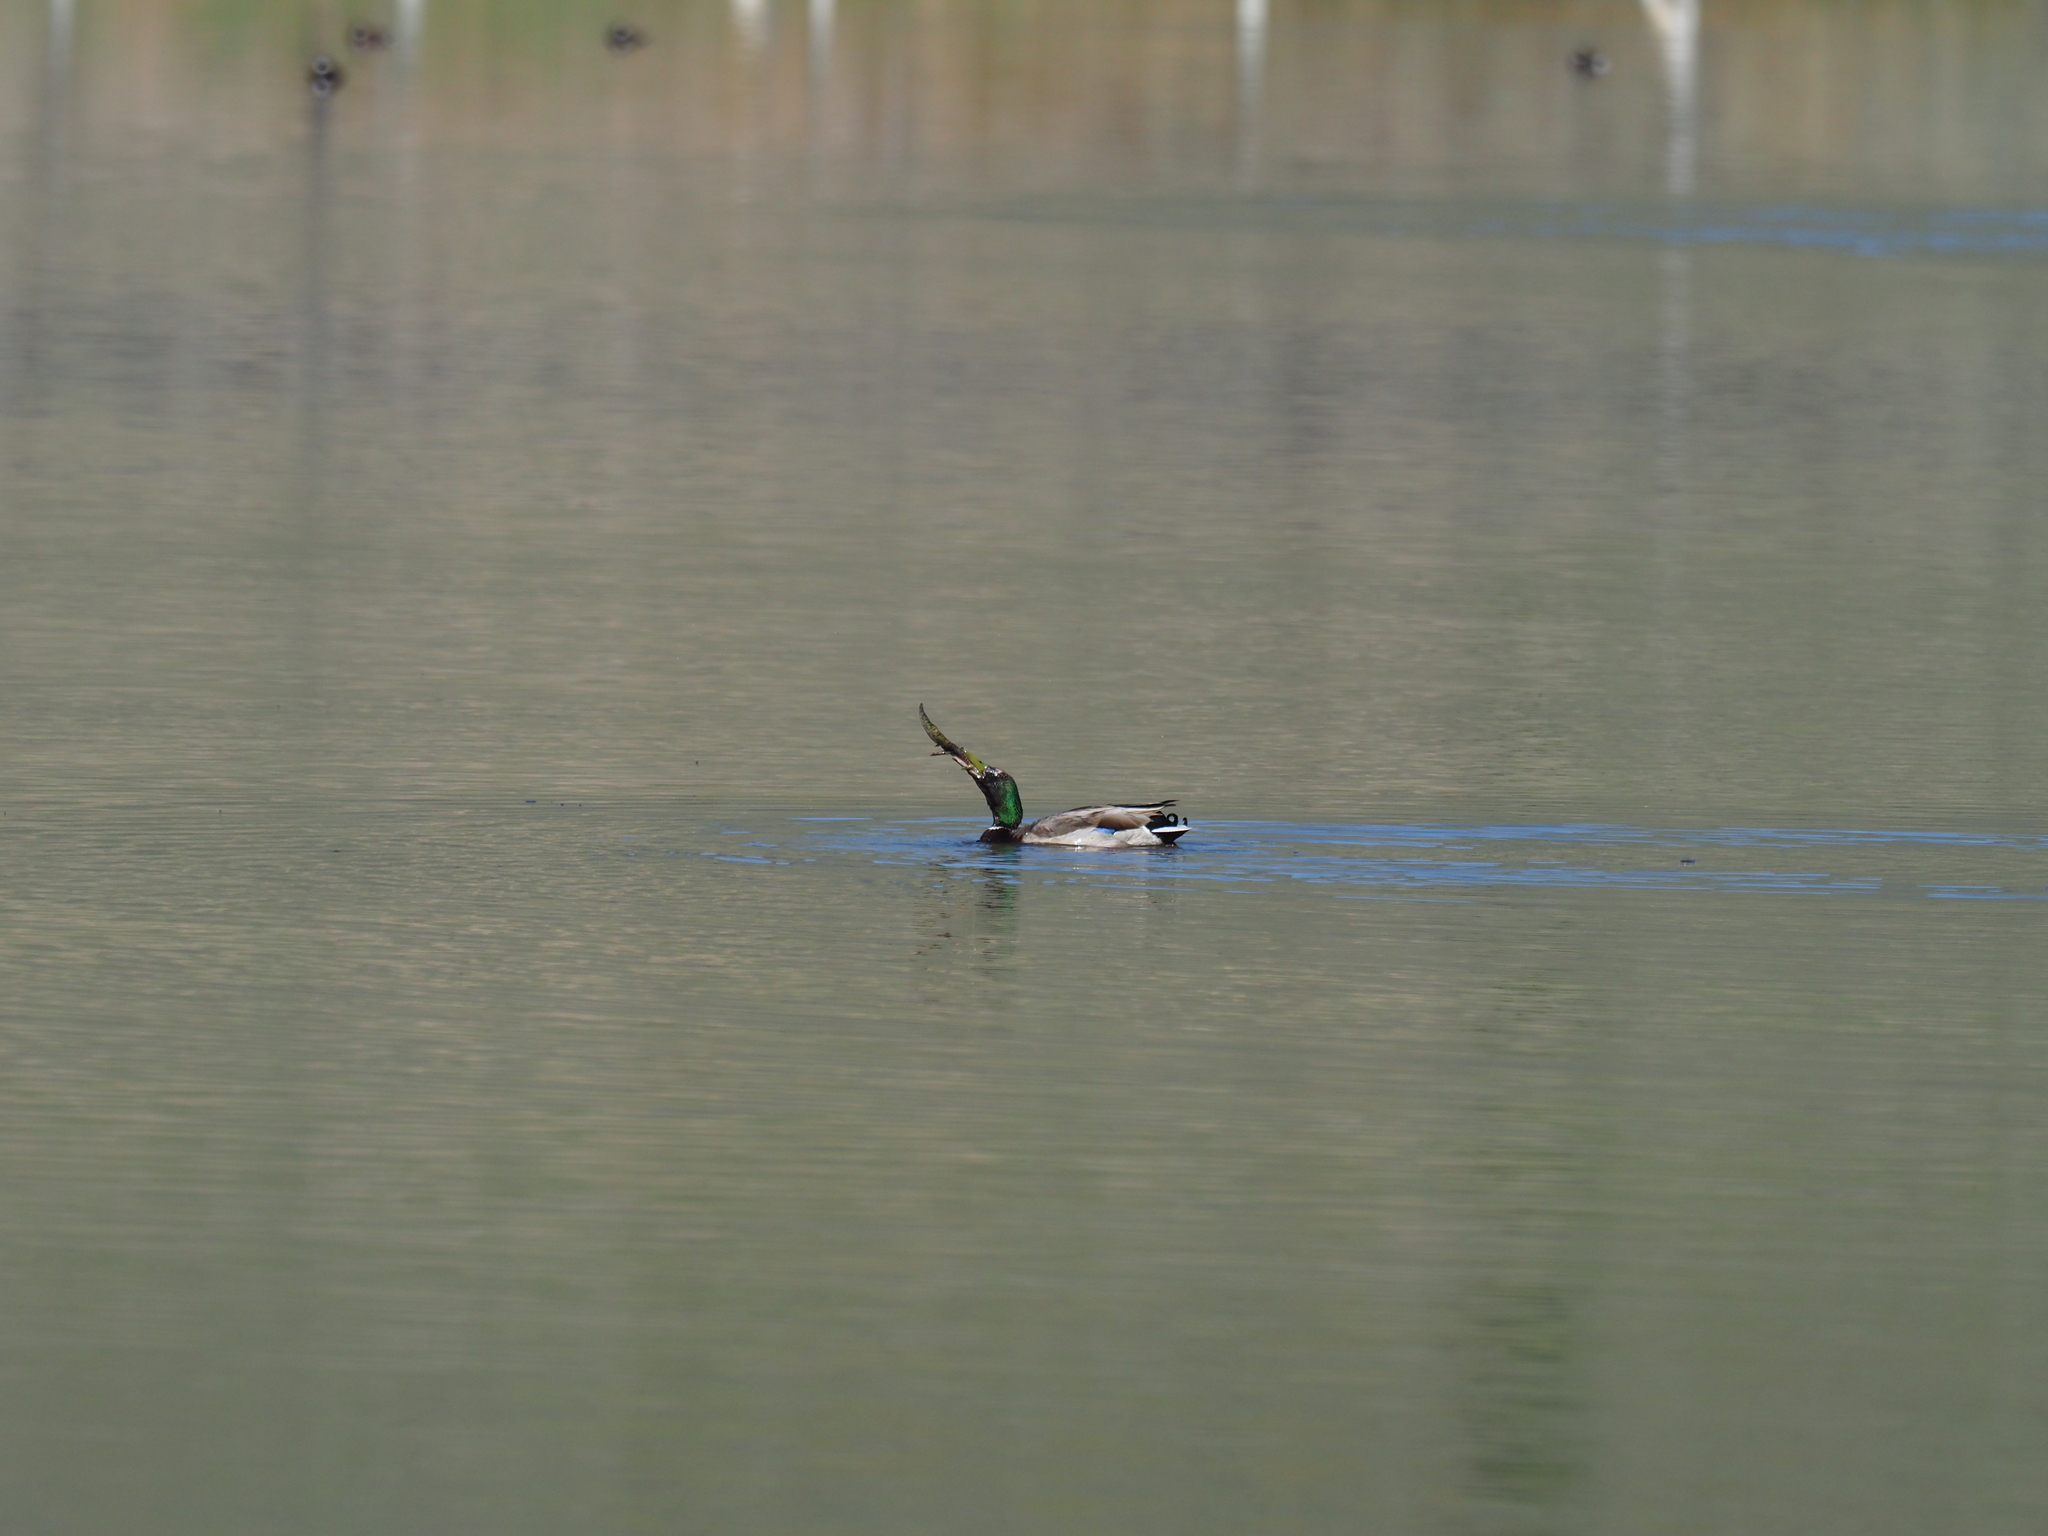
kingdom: Animalia
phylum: Chordata
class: Aves
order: Anseriformes
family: Anatidae
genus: Anas
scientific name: Anas platyrhynchos
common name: Mallard
